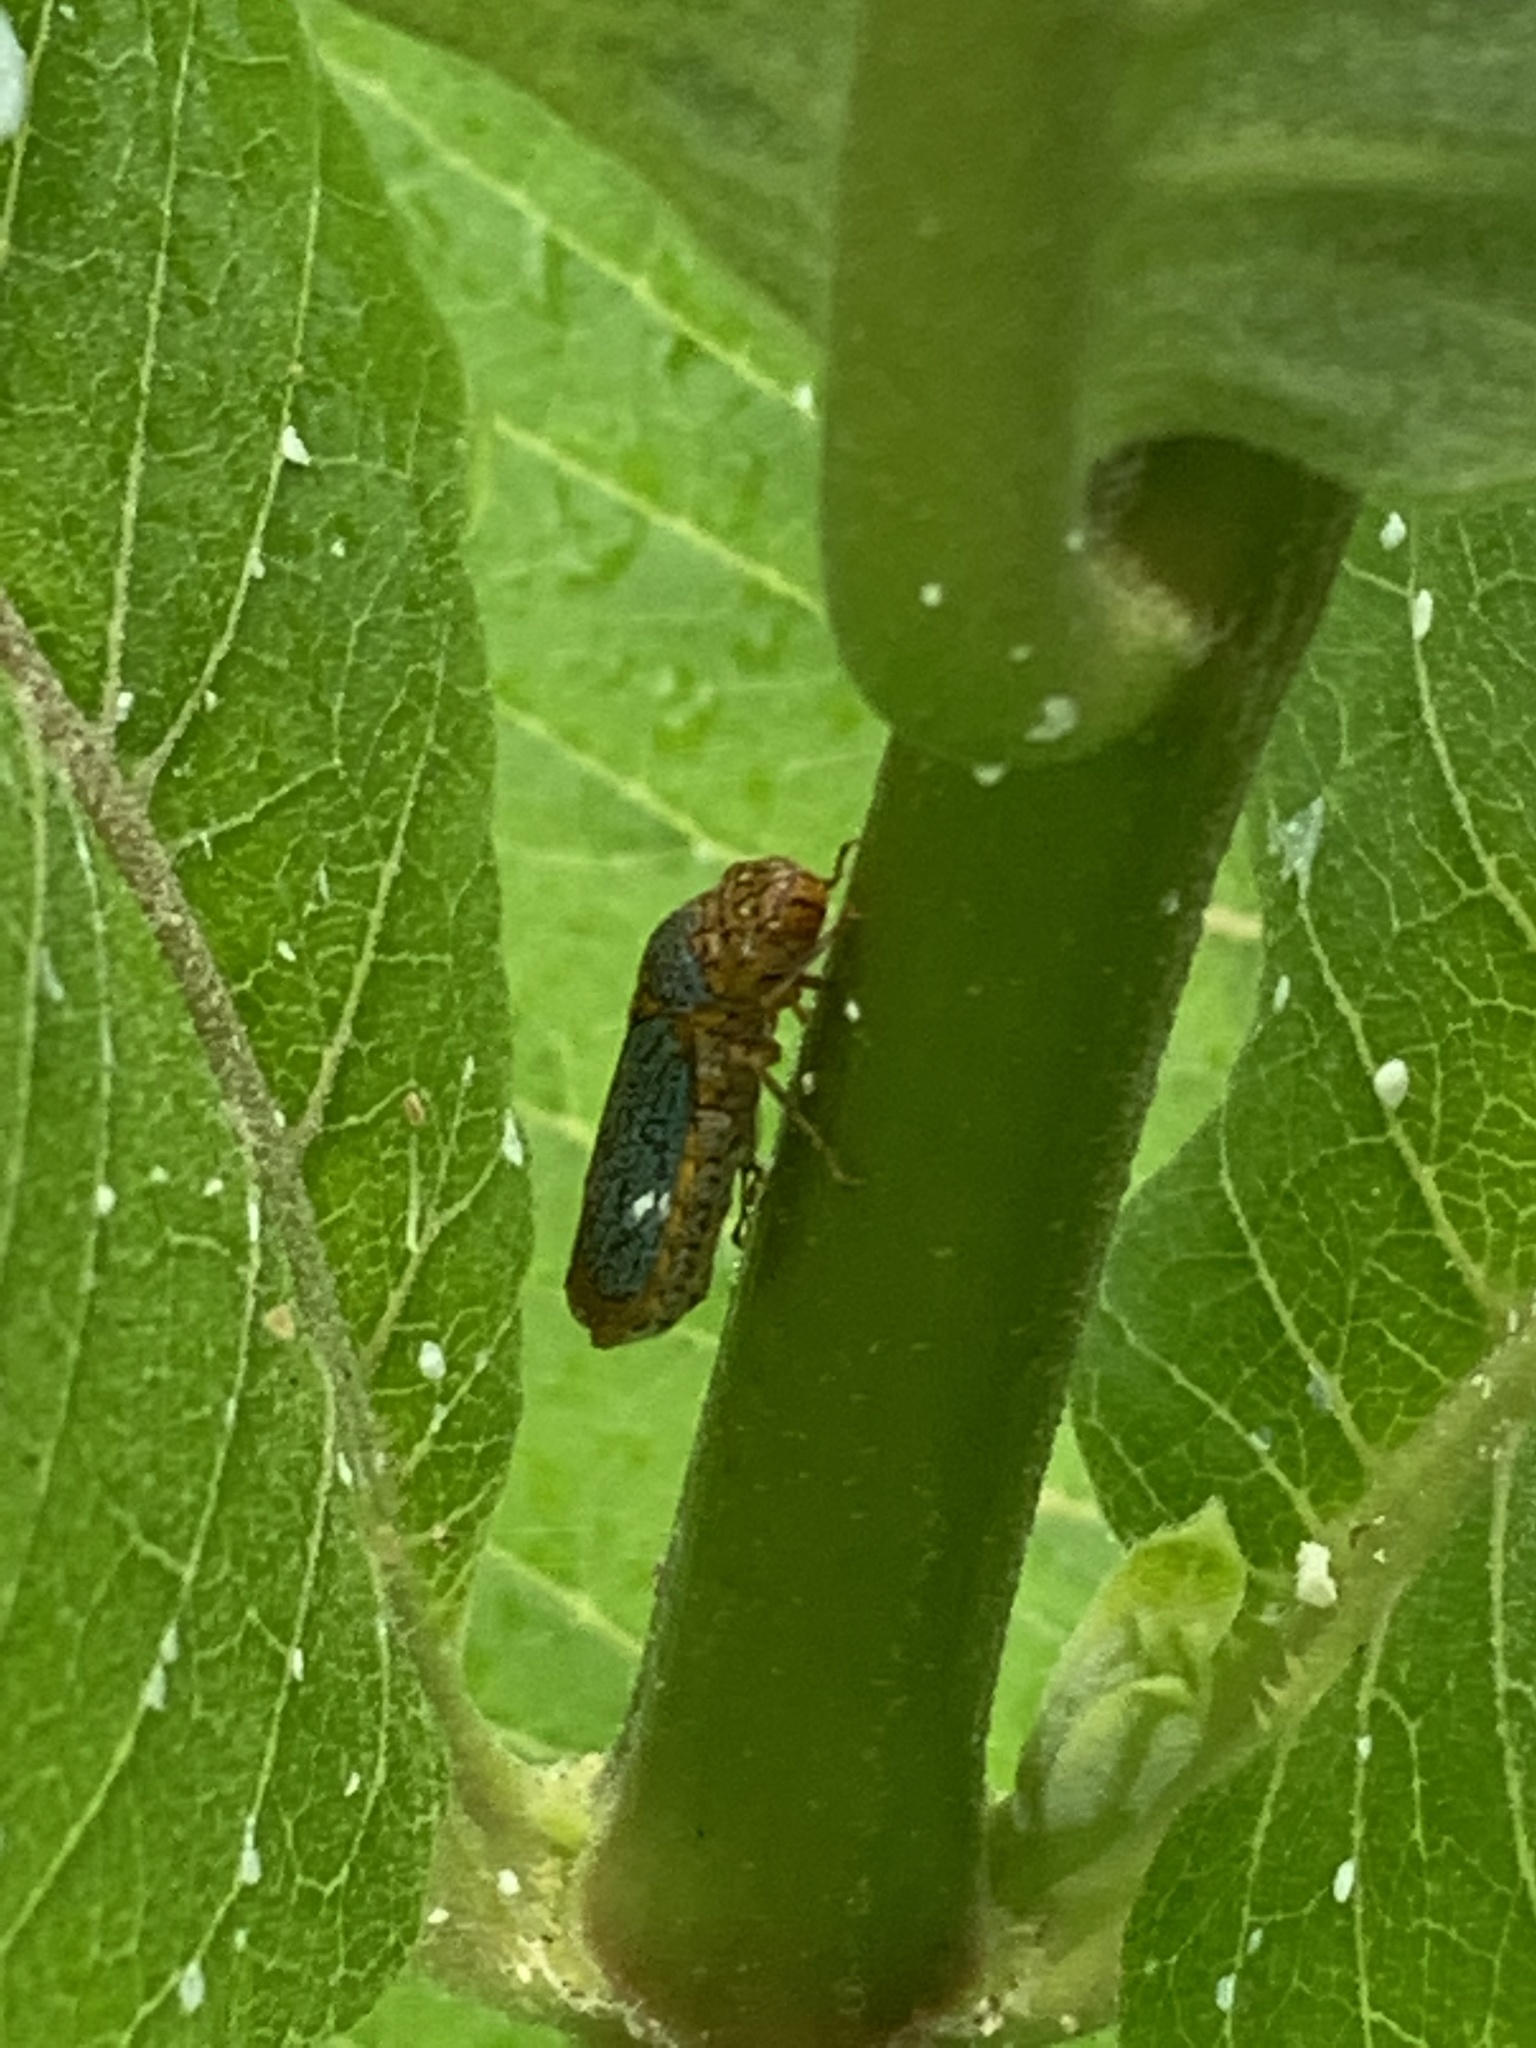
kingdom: Animalia
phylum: Arthropoda
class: Insecta
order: Hemiptera
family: Cicadellidae
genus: Oncometopia
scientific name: Oncometopia orbona
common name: Broad-headed sharpshooter
